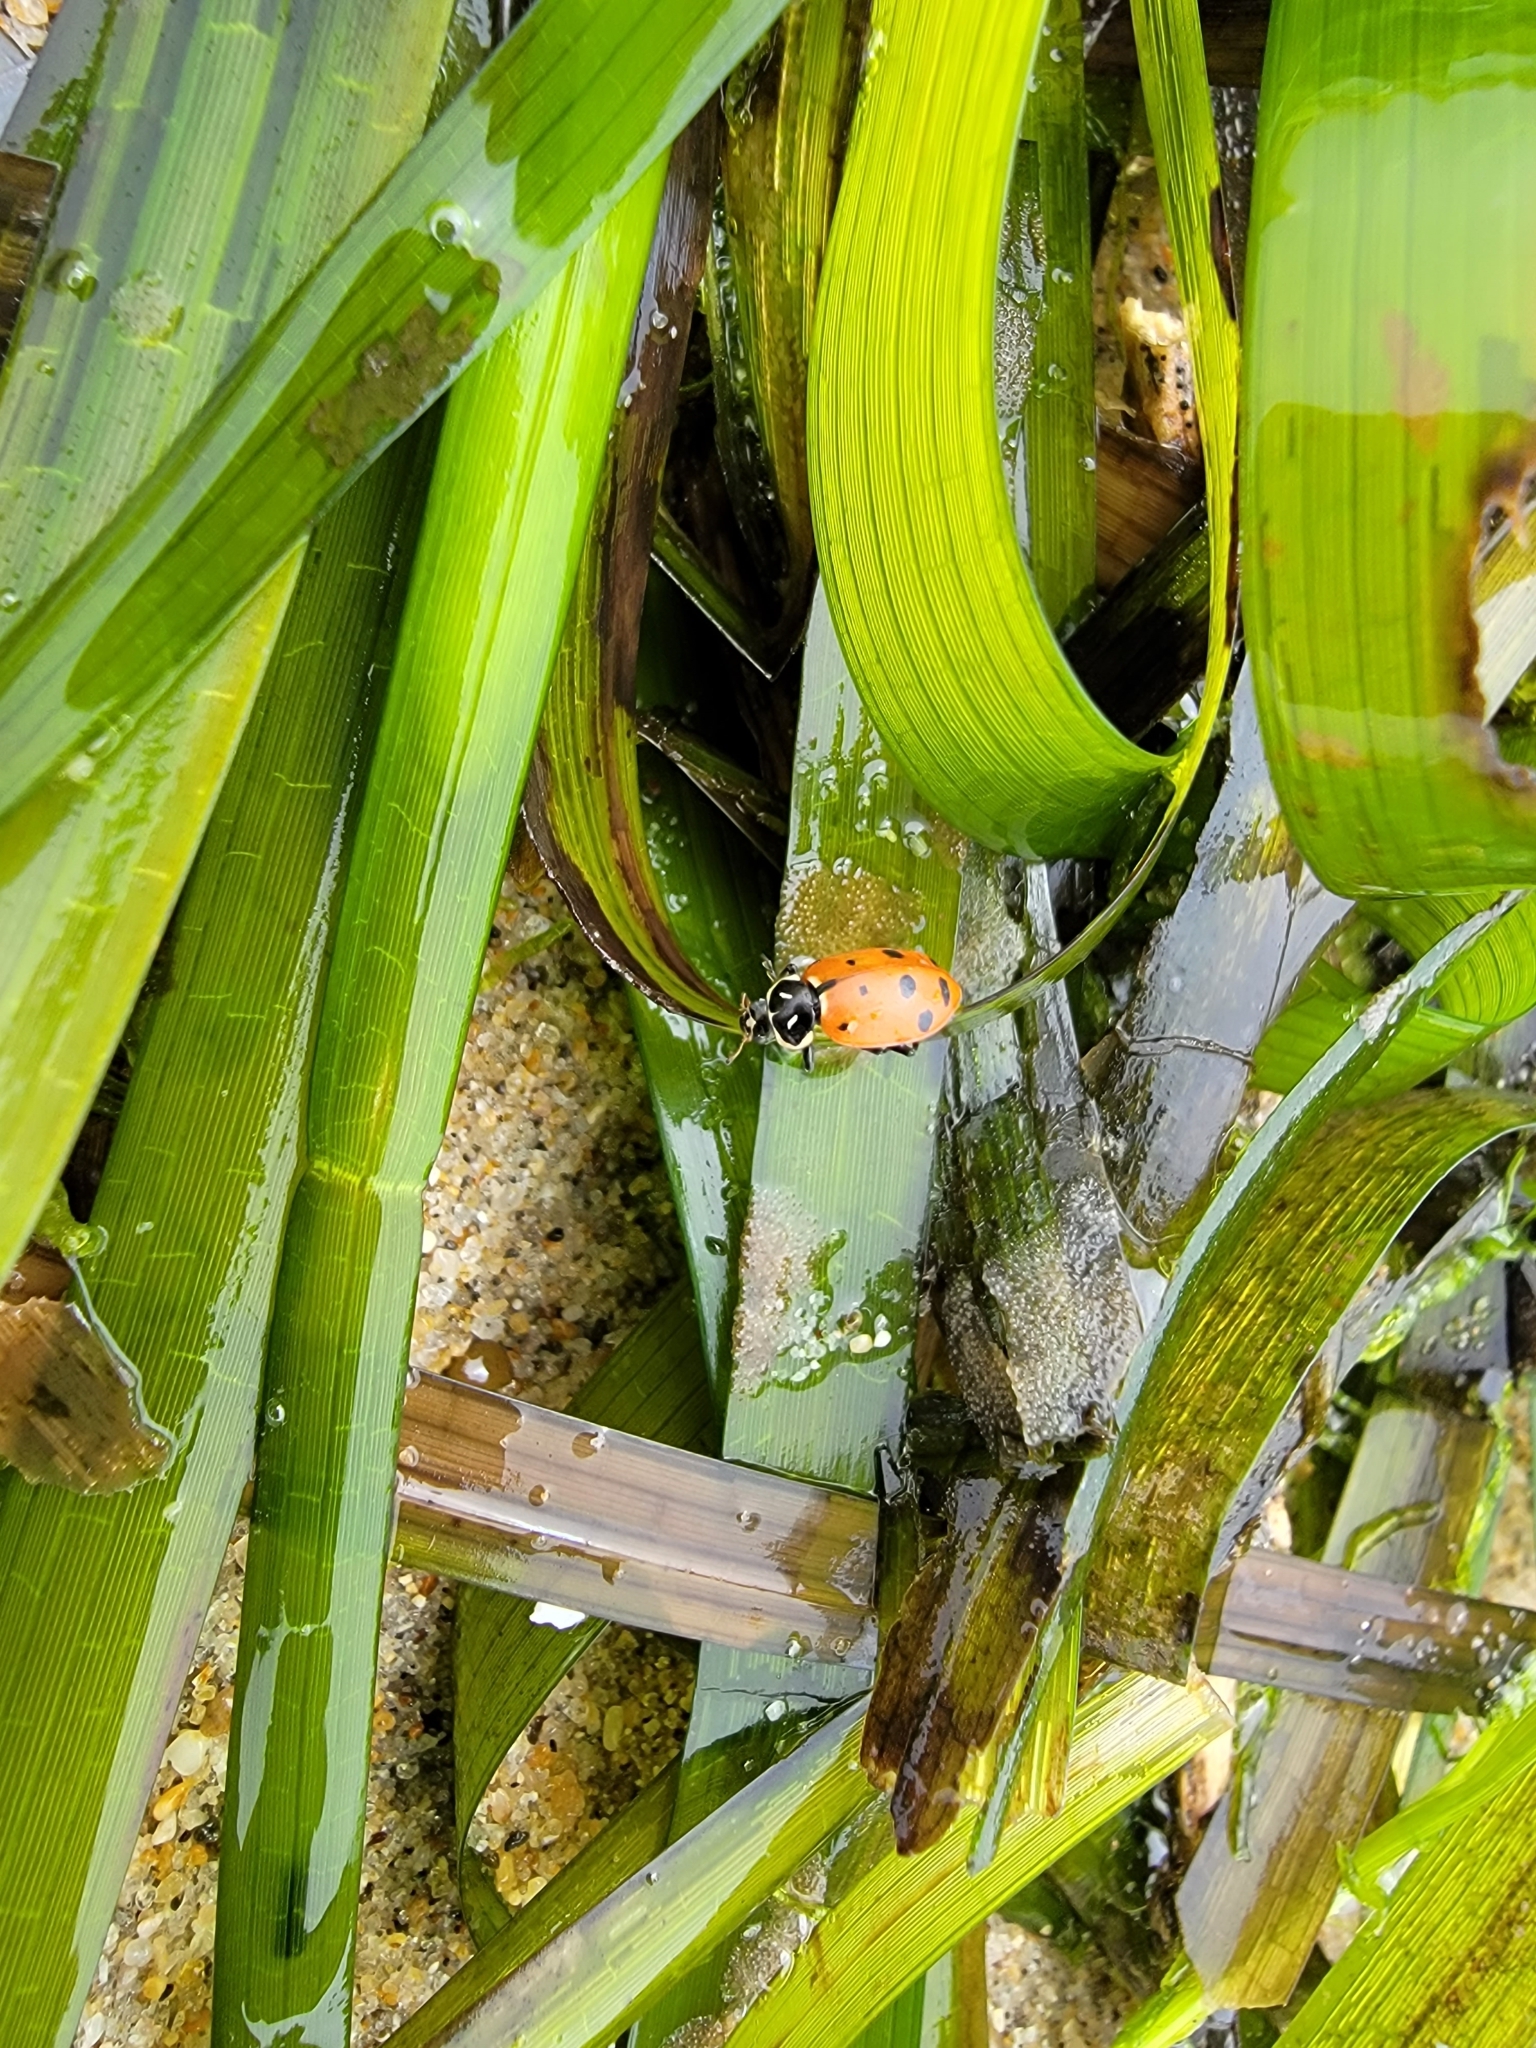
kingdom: Animalia
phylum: Arthropoda
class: Insecta
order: Coleoptera
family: Coccinellidae
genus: Hippodamia
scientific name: Hippodamia convergens
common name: Convergent lady beetle
